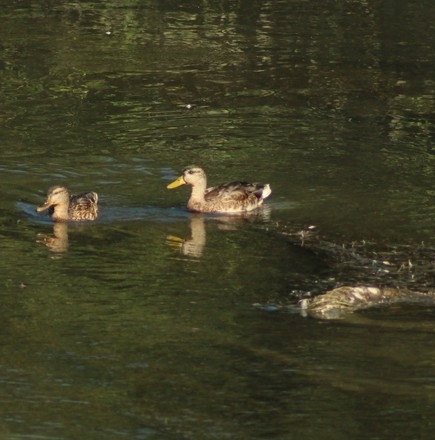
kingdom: Animalia
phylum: Chordata
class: Aves
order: Anseriformes
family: Anatidae
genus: Anas
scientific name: Anas platyrhynchos
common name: Mallard
